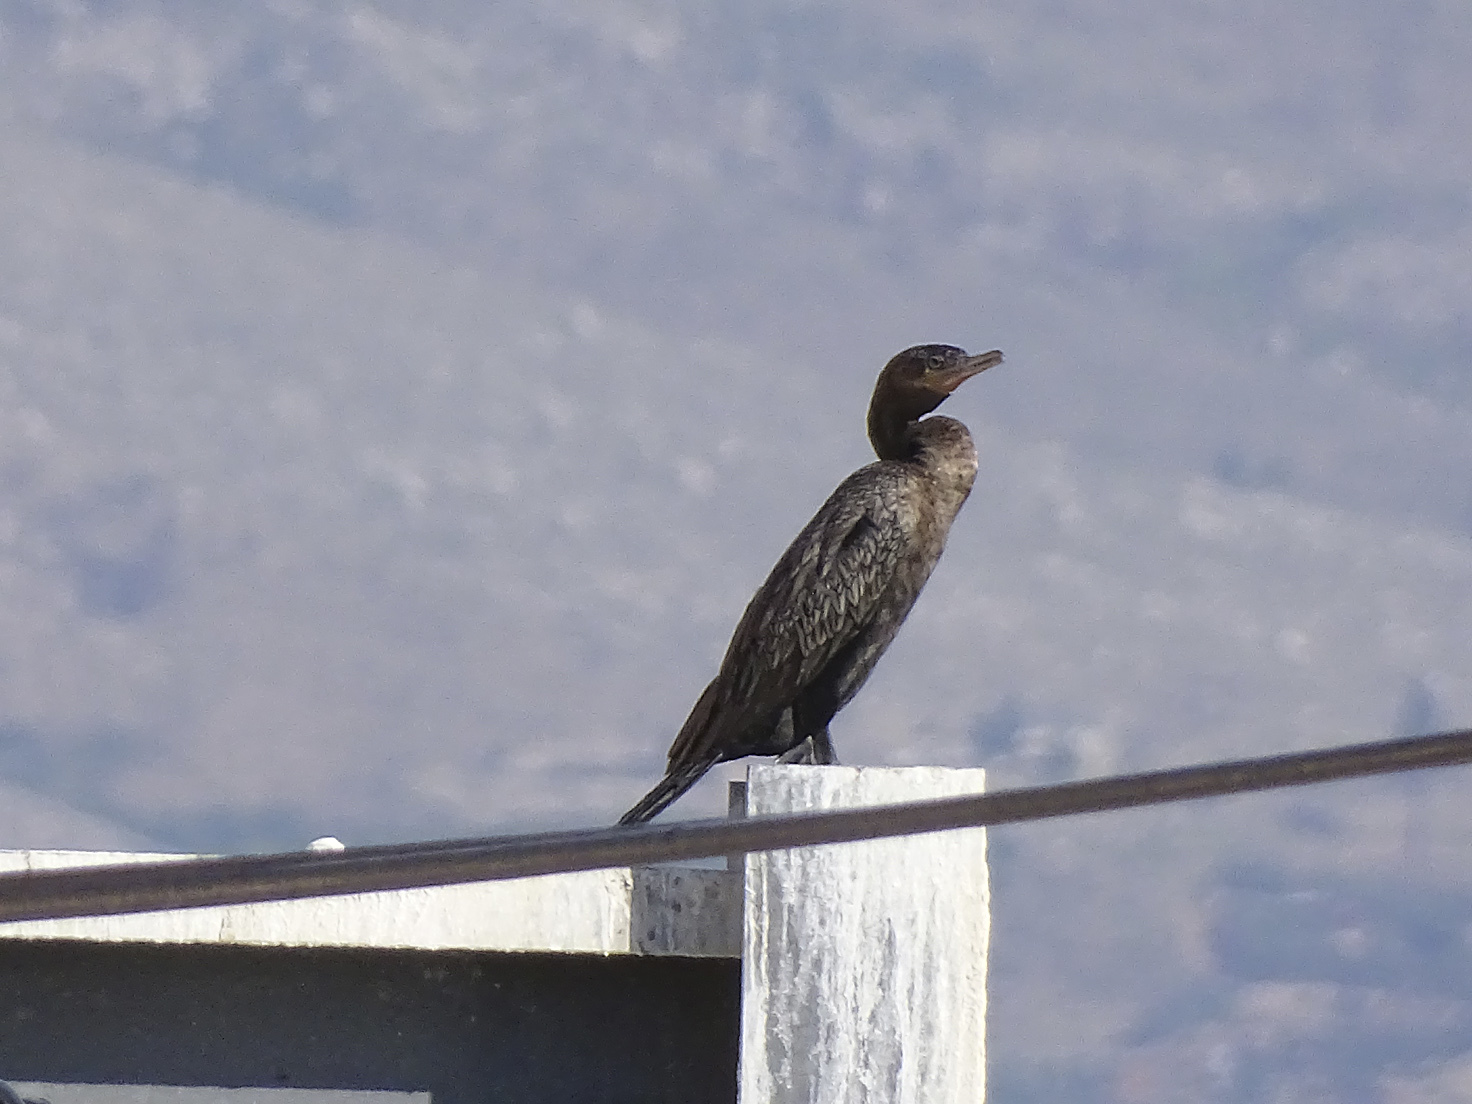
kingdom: Animalia
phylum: Chordata
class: Aves
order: Suliformes
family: Phalacrocoracidae
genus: Phalacrocorax
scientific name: Phalacrocorax brasilianus
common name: Neotropic cormorant
